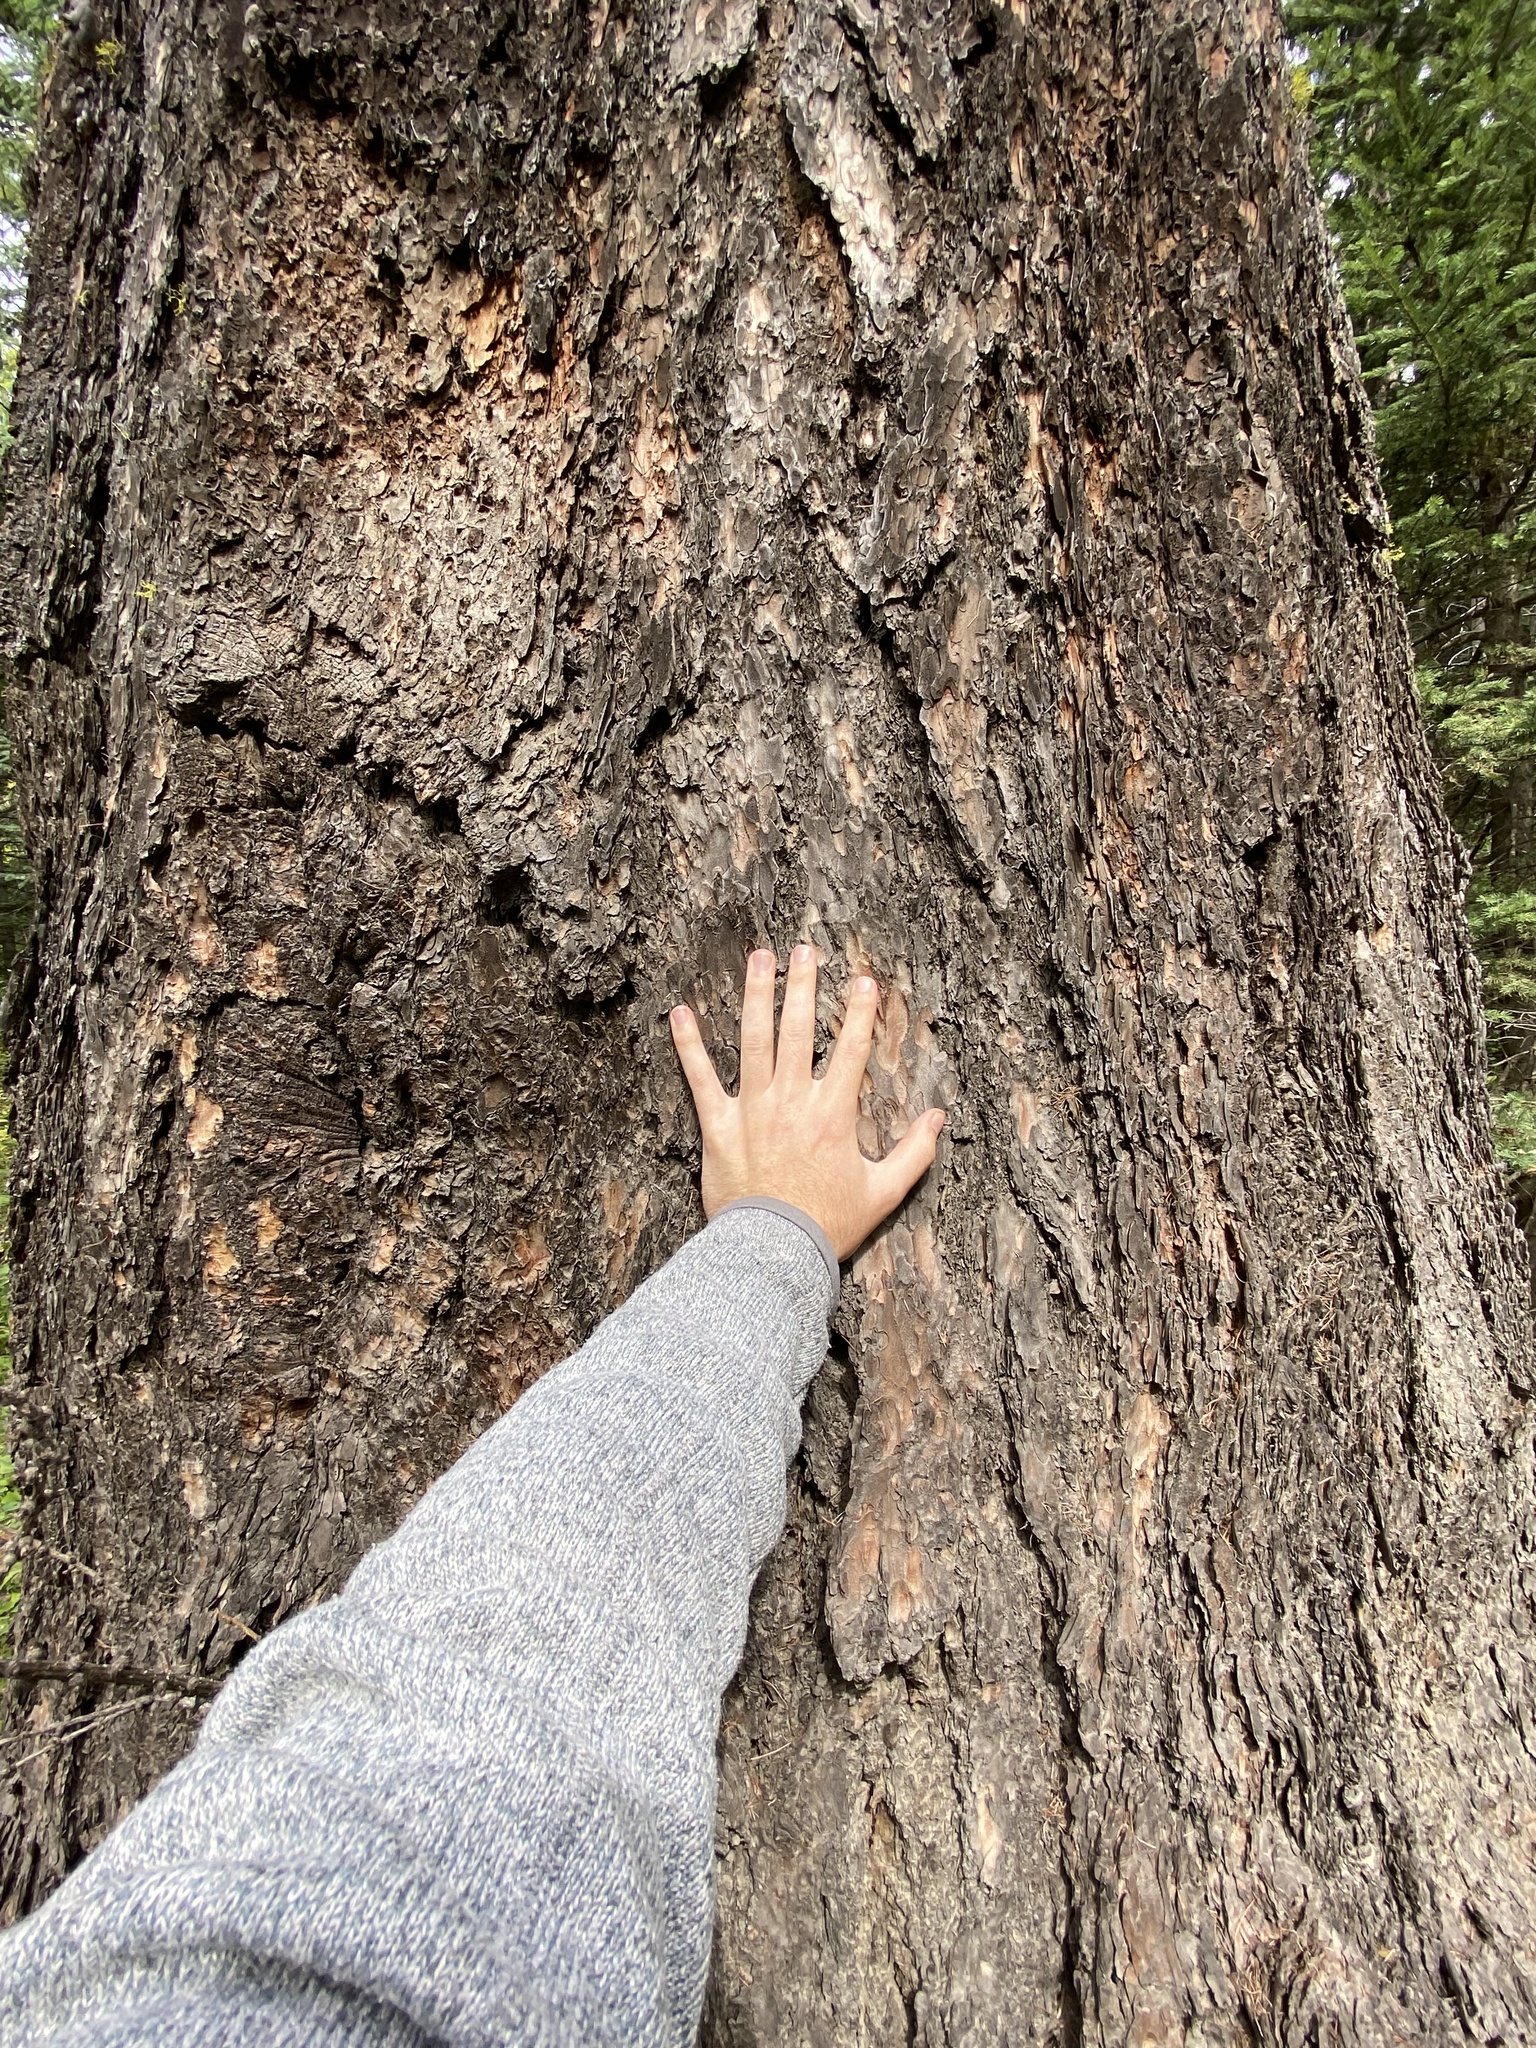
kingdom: Plantae
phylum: Tracheophyta
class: Pinopsida
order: Pinales
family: Pinaceae
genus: Larix
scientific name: Larix occidentalis
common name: Western larch
